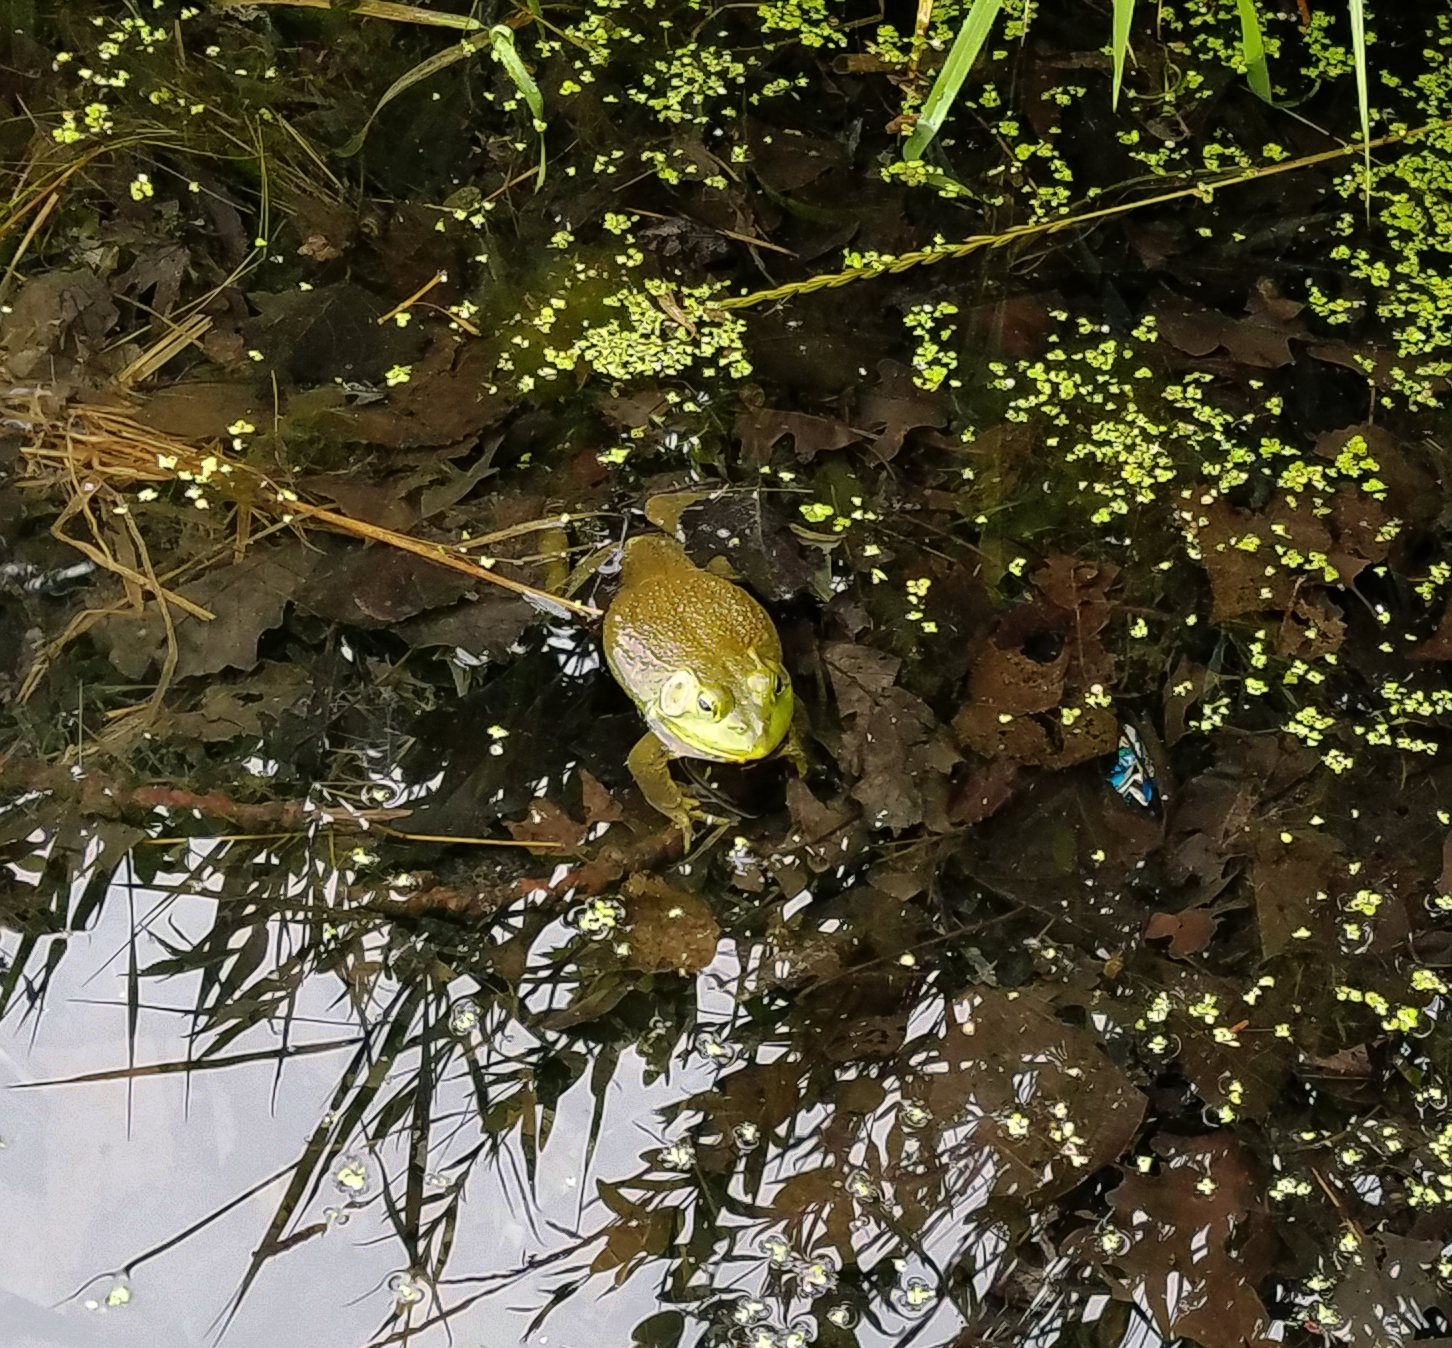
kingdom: Animalia
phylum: Chordata
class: Amphibia
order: Anura
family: Ranidae
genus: Lithobates
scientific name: Lithobates catesbeianus
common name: American bullfrog
